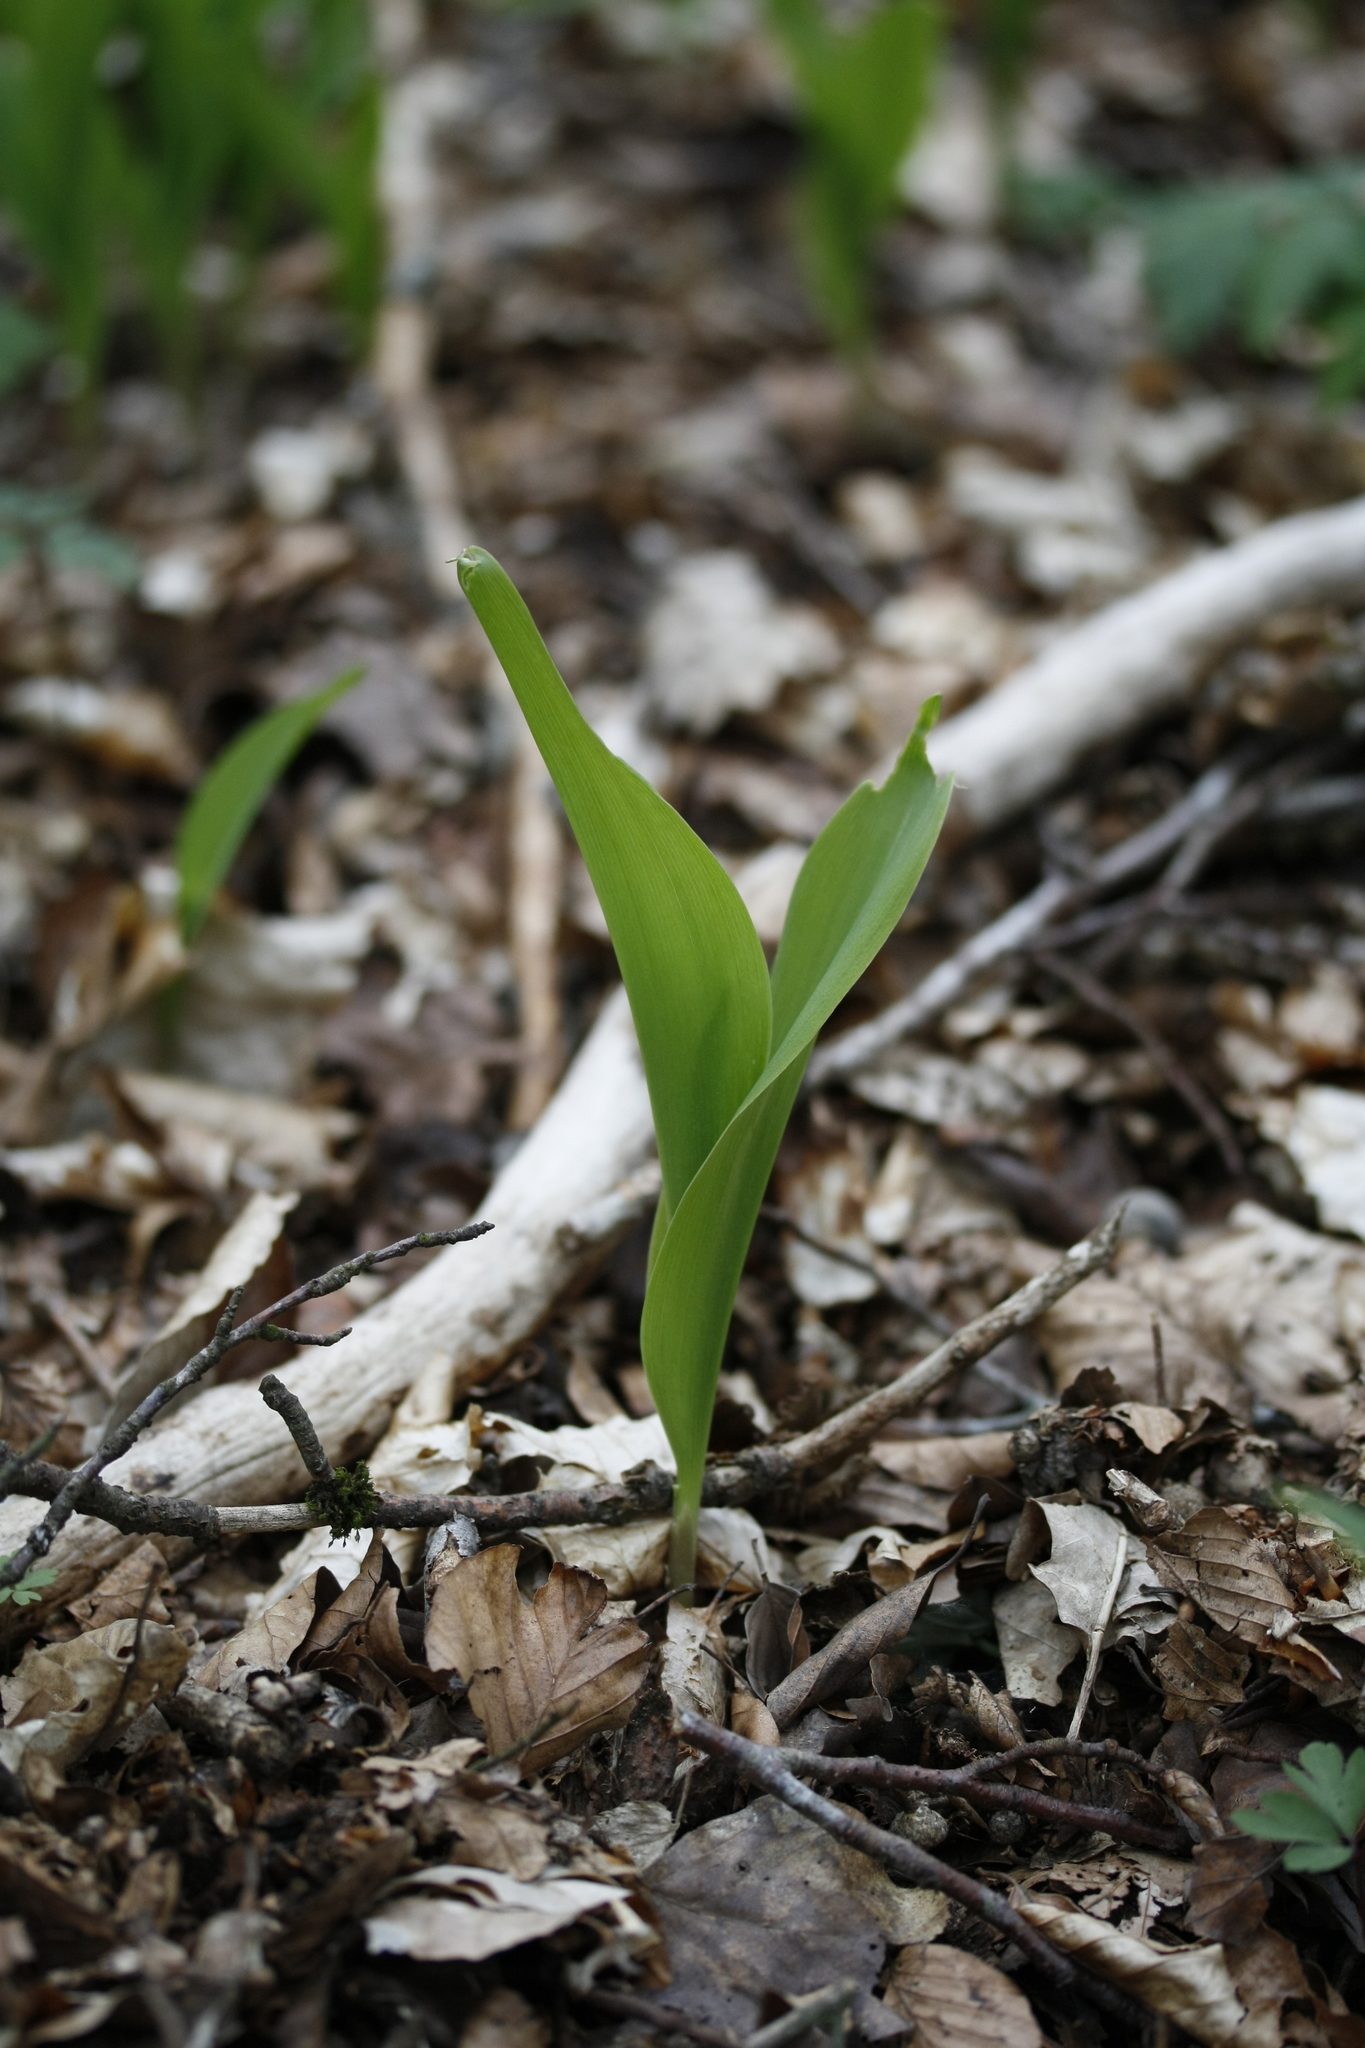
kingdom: Plantae
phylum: Tracheophyta
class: Liliopsida
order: Asparagales
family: Asparagaceae
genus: Convallaria
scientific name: Convallaria majalis
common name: Lily-of-the-valley
